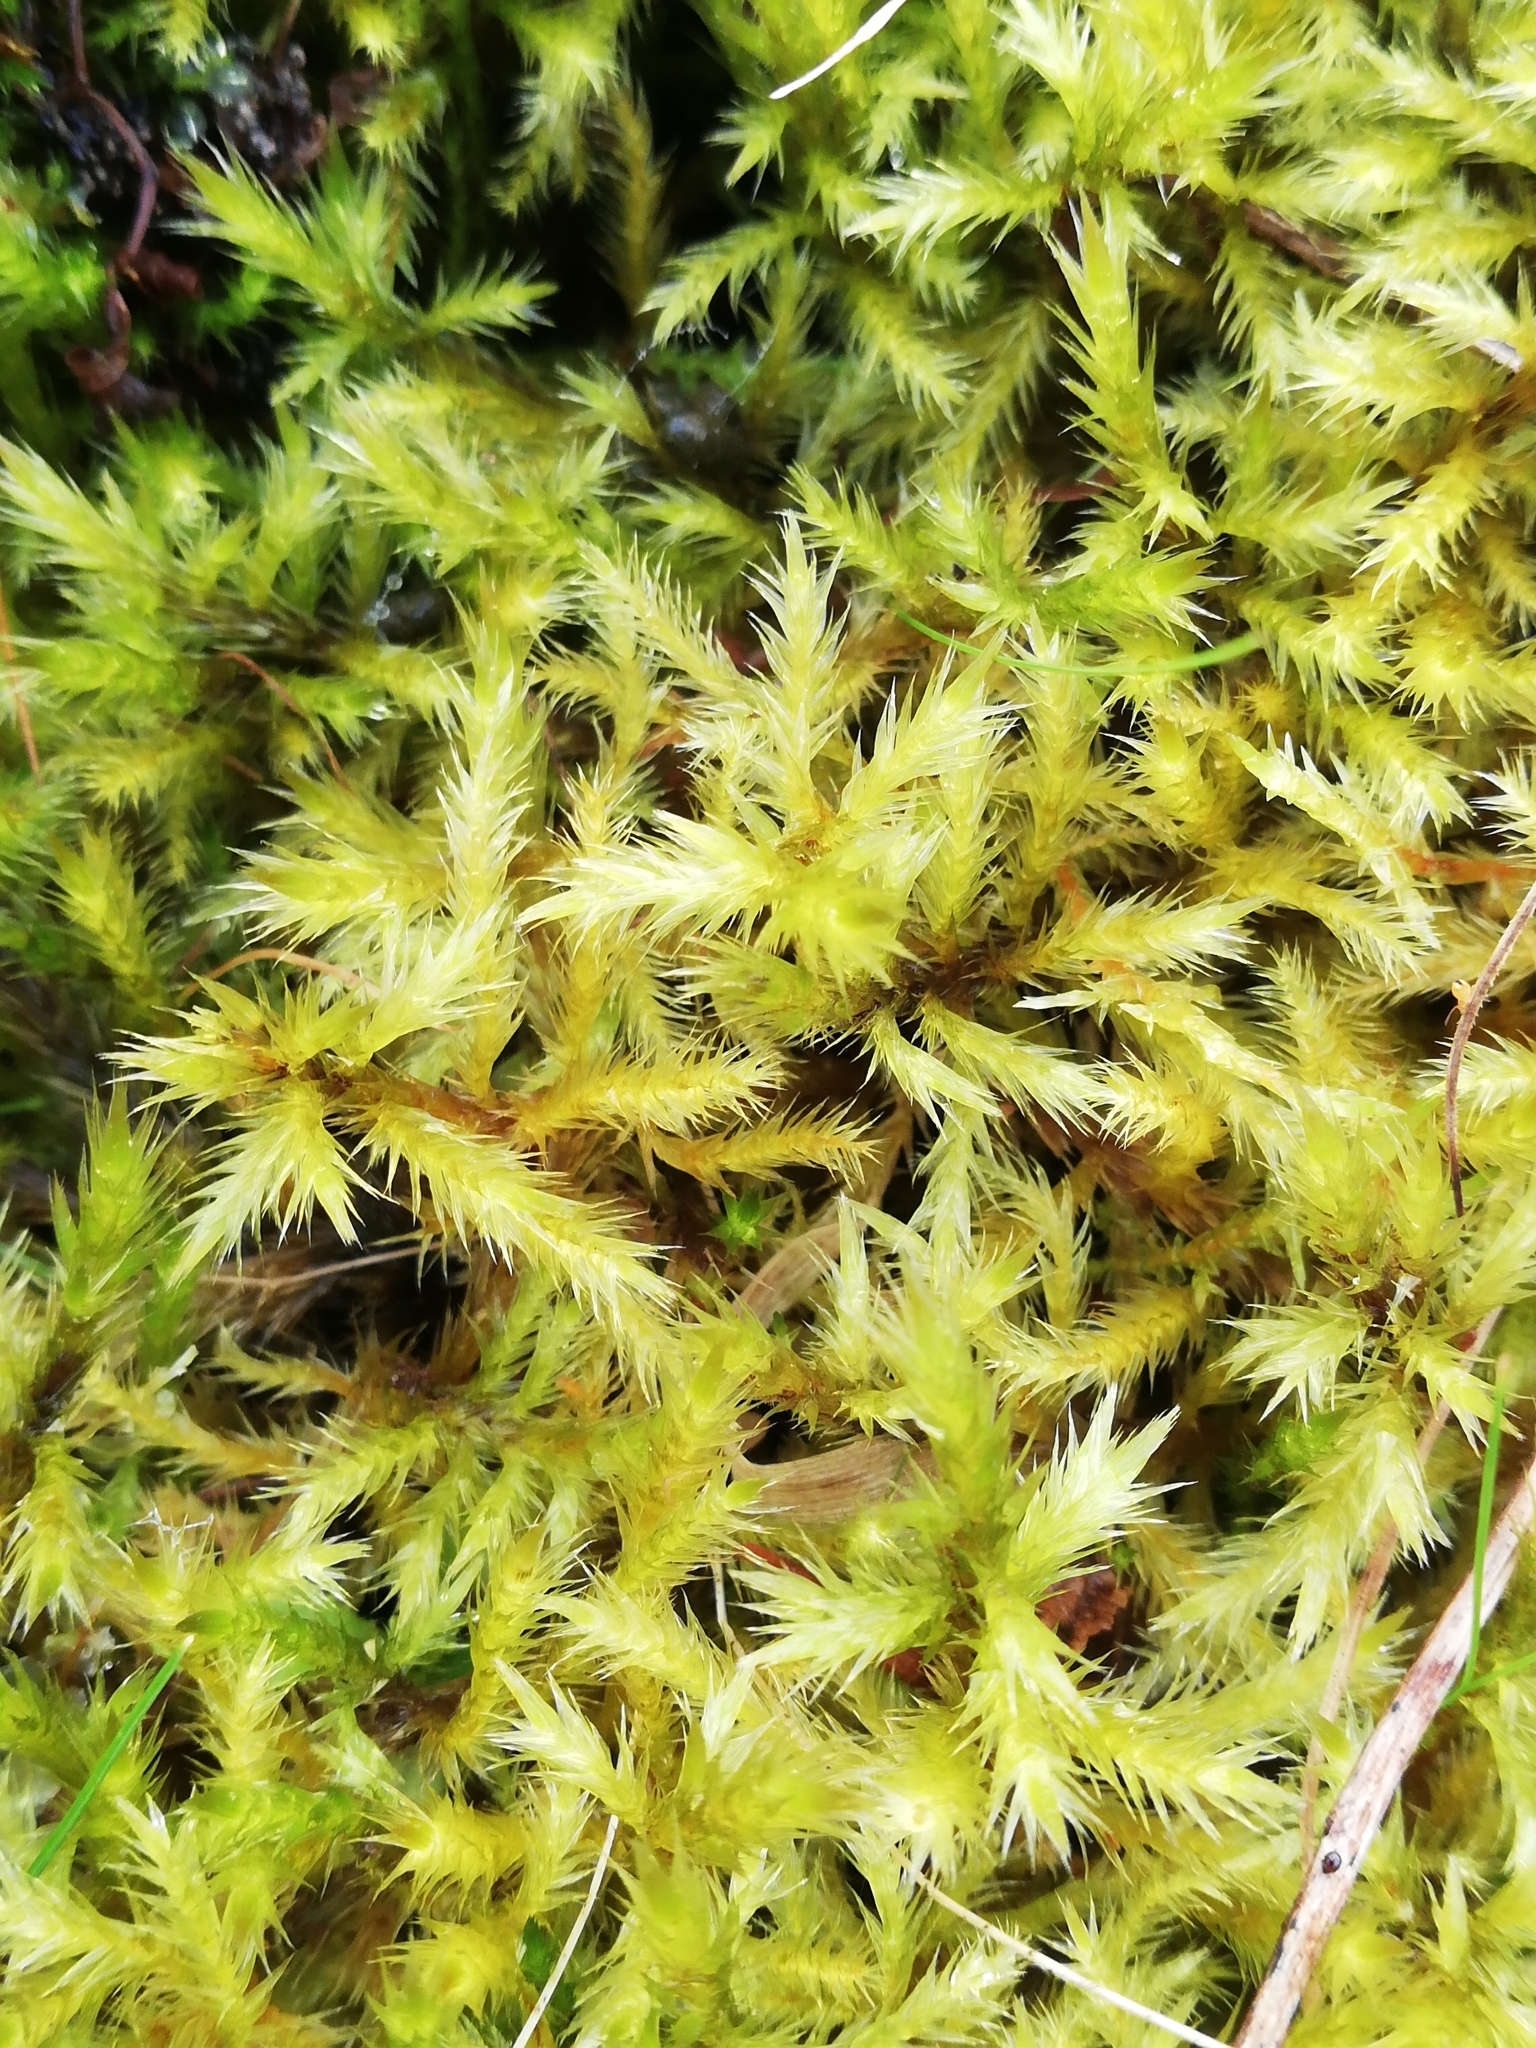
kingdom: Plantae
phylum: Bryophyta
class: Bryopsida
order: Hypnales
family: Amblystegiaceae
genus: Tomentypnum
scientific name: Tomentypnum nitens
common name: Golden fuzzy fen moss
